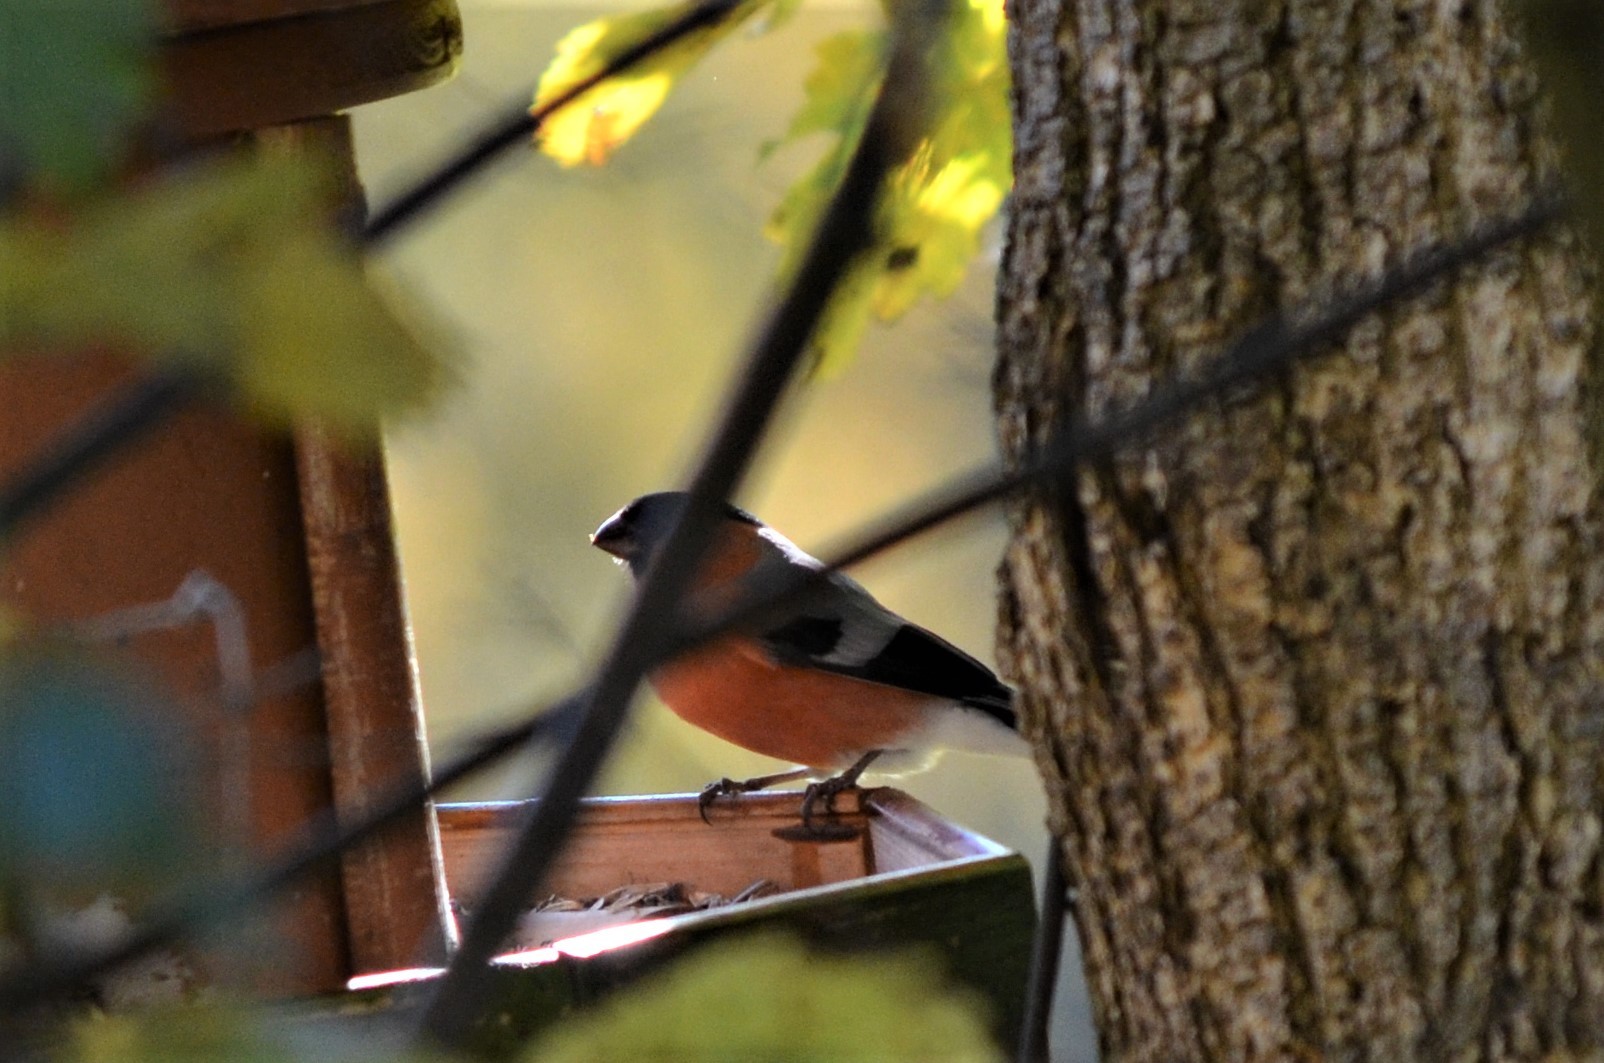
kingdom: Animalia
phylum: Chordata
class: Aves
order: Passeriformes
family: Fringillidae
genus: Pyrrhula
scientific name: Pyrrhula pyrrhula
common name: Eurasian bullfinch
